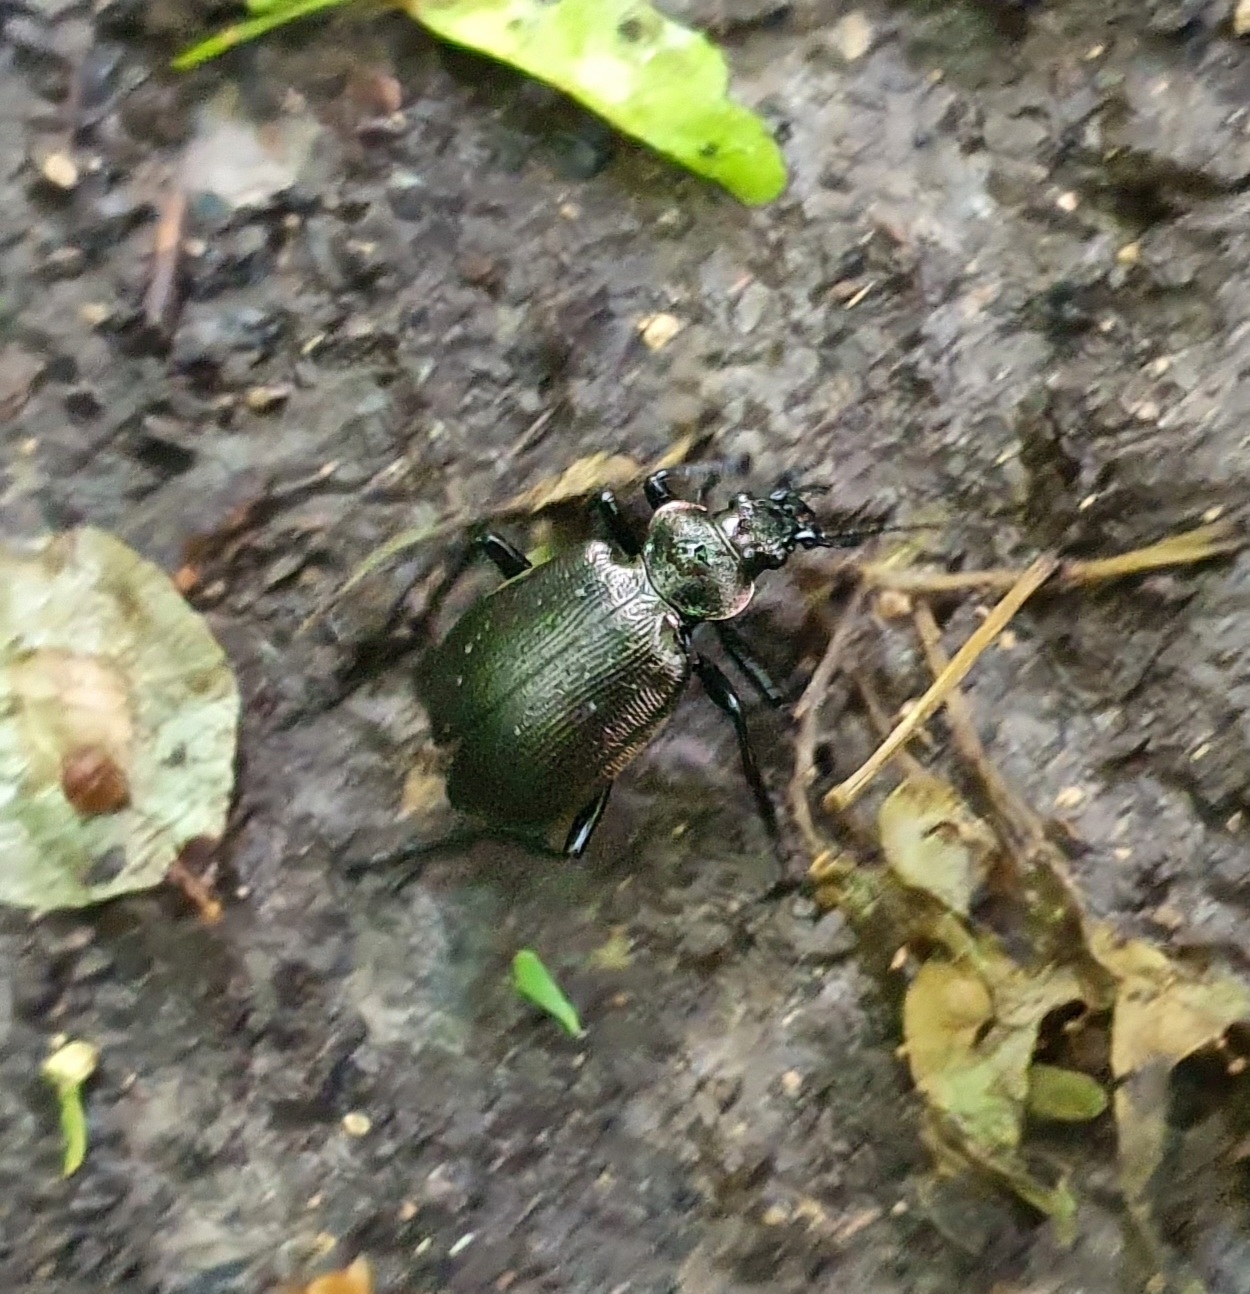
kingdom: Animalia
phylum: Arthropoda
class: Insecta
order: Coleoptera
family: Carabidae
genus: Calosoma
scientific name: Calosoma inquisitor
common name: Caterpillar-hunter
